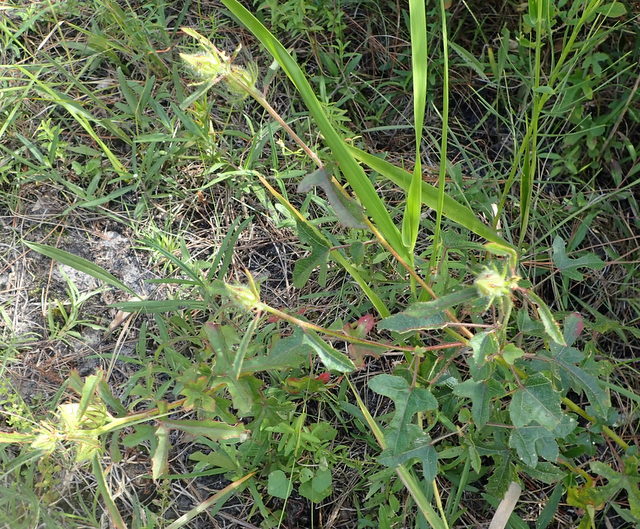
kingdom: Plantae
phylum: Tracheophyta
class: Magnoliopsida
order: Malvales
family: Malvaceae
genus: Hibiscus
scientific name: Hibiscus aculeatus
